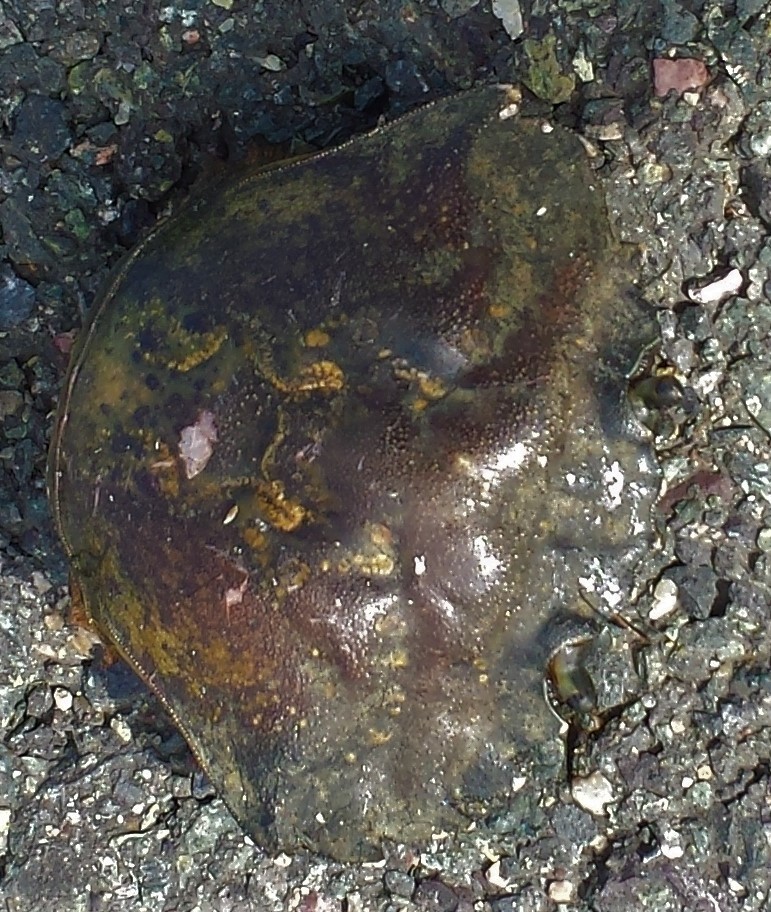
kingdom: Animalia
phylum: Arthropoda
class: Malacostraca
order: Decapoda
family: Carcinidae
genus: Carcinus
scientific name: Carcinus maenas
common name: European green crab
